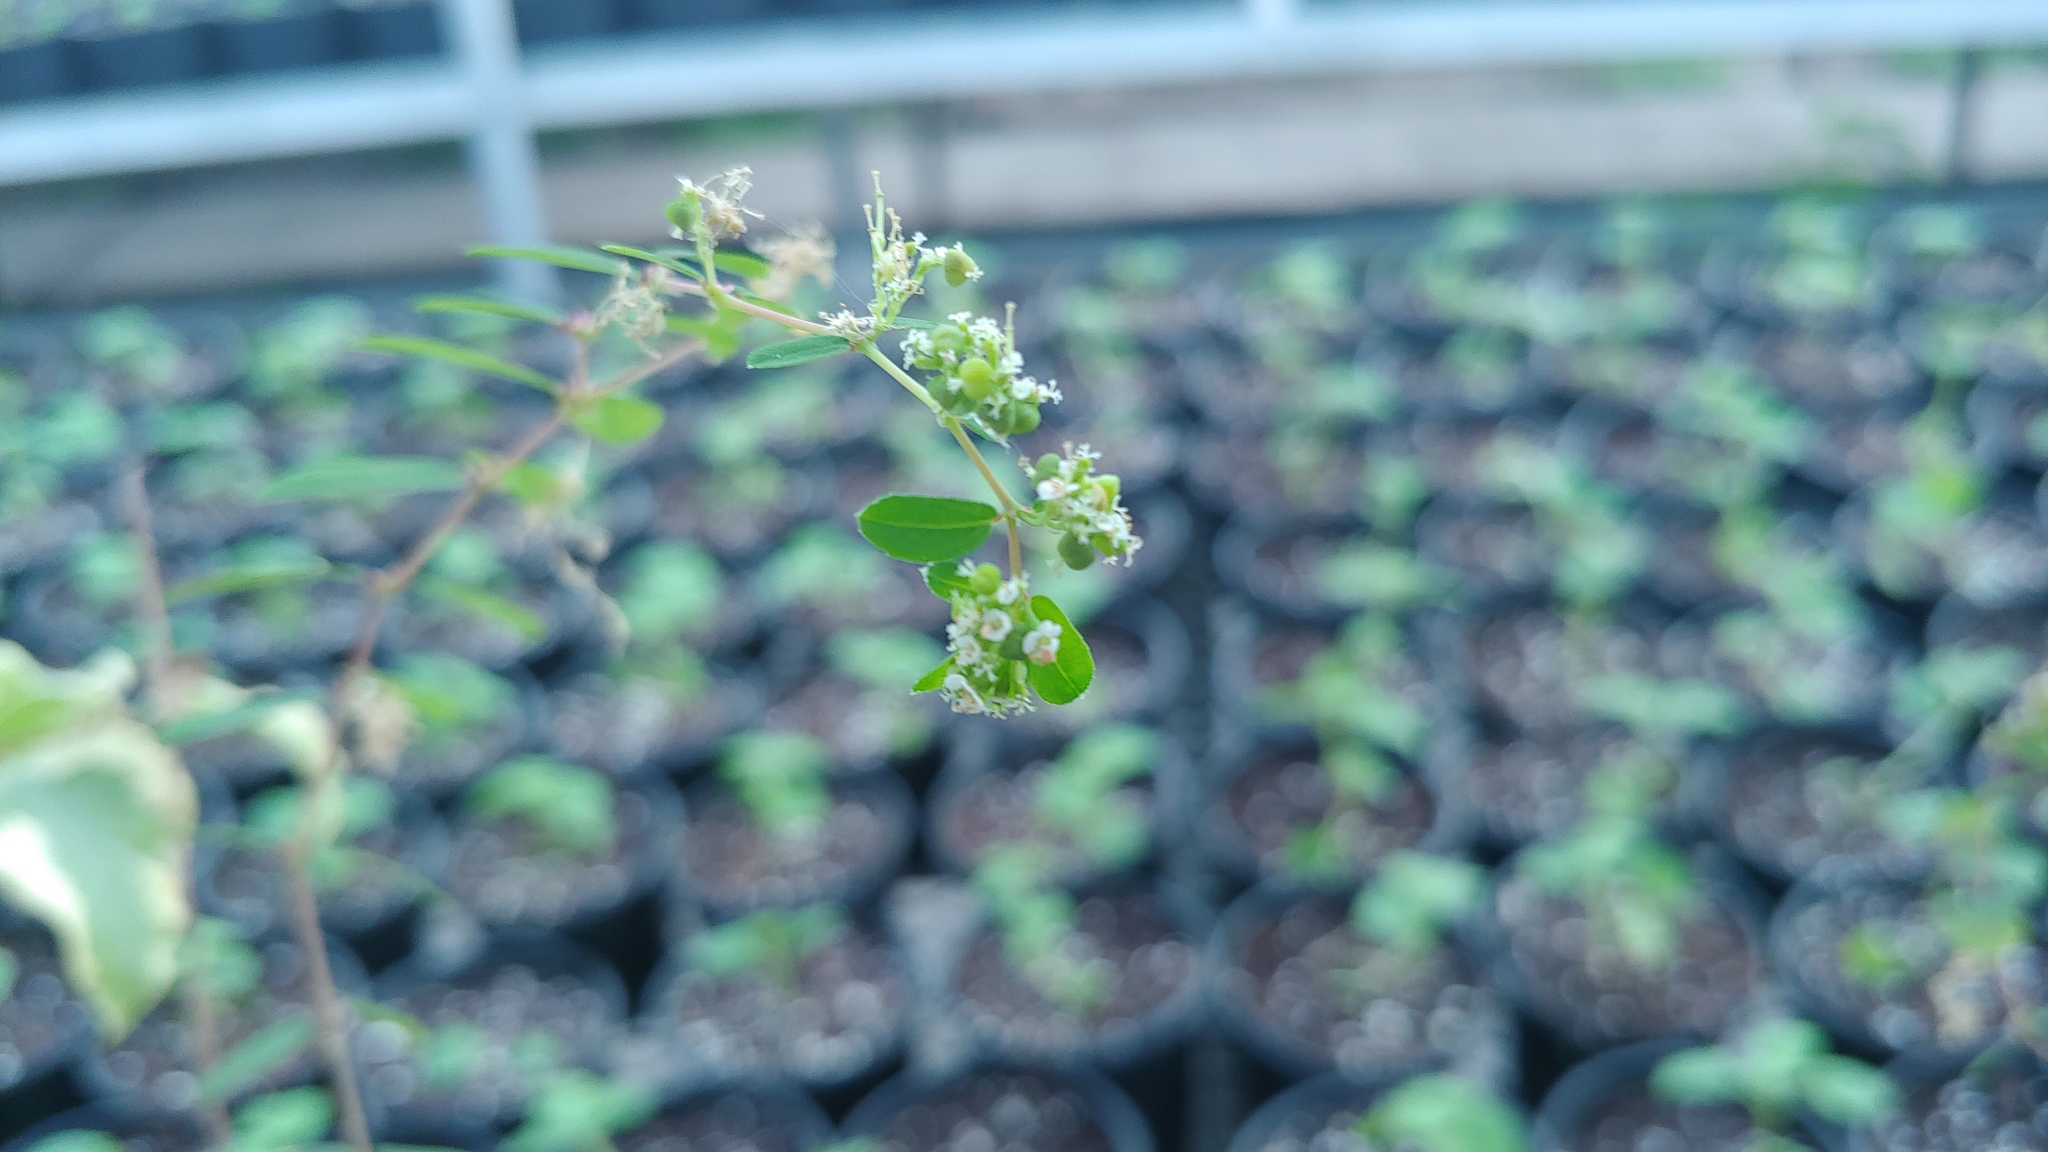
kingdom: Plantae
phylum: Tracheophyta
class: Magnoliopsida
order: Malpighiales
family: Euphorbiaceae
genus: Euphorbia
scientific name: Euphorbia hypericifolia
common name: Graceful sandmat
